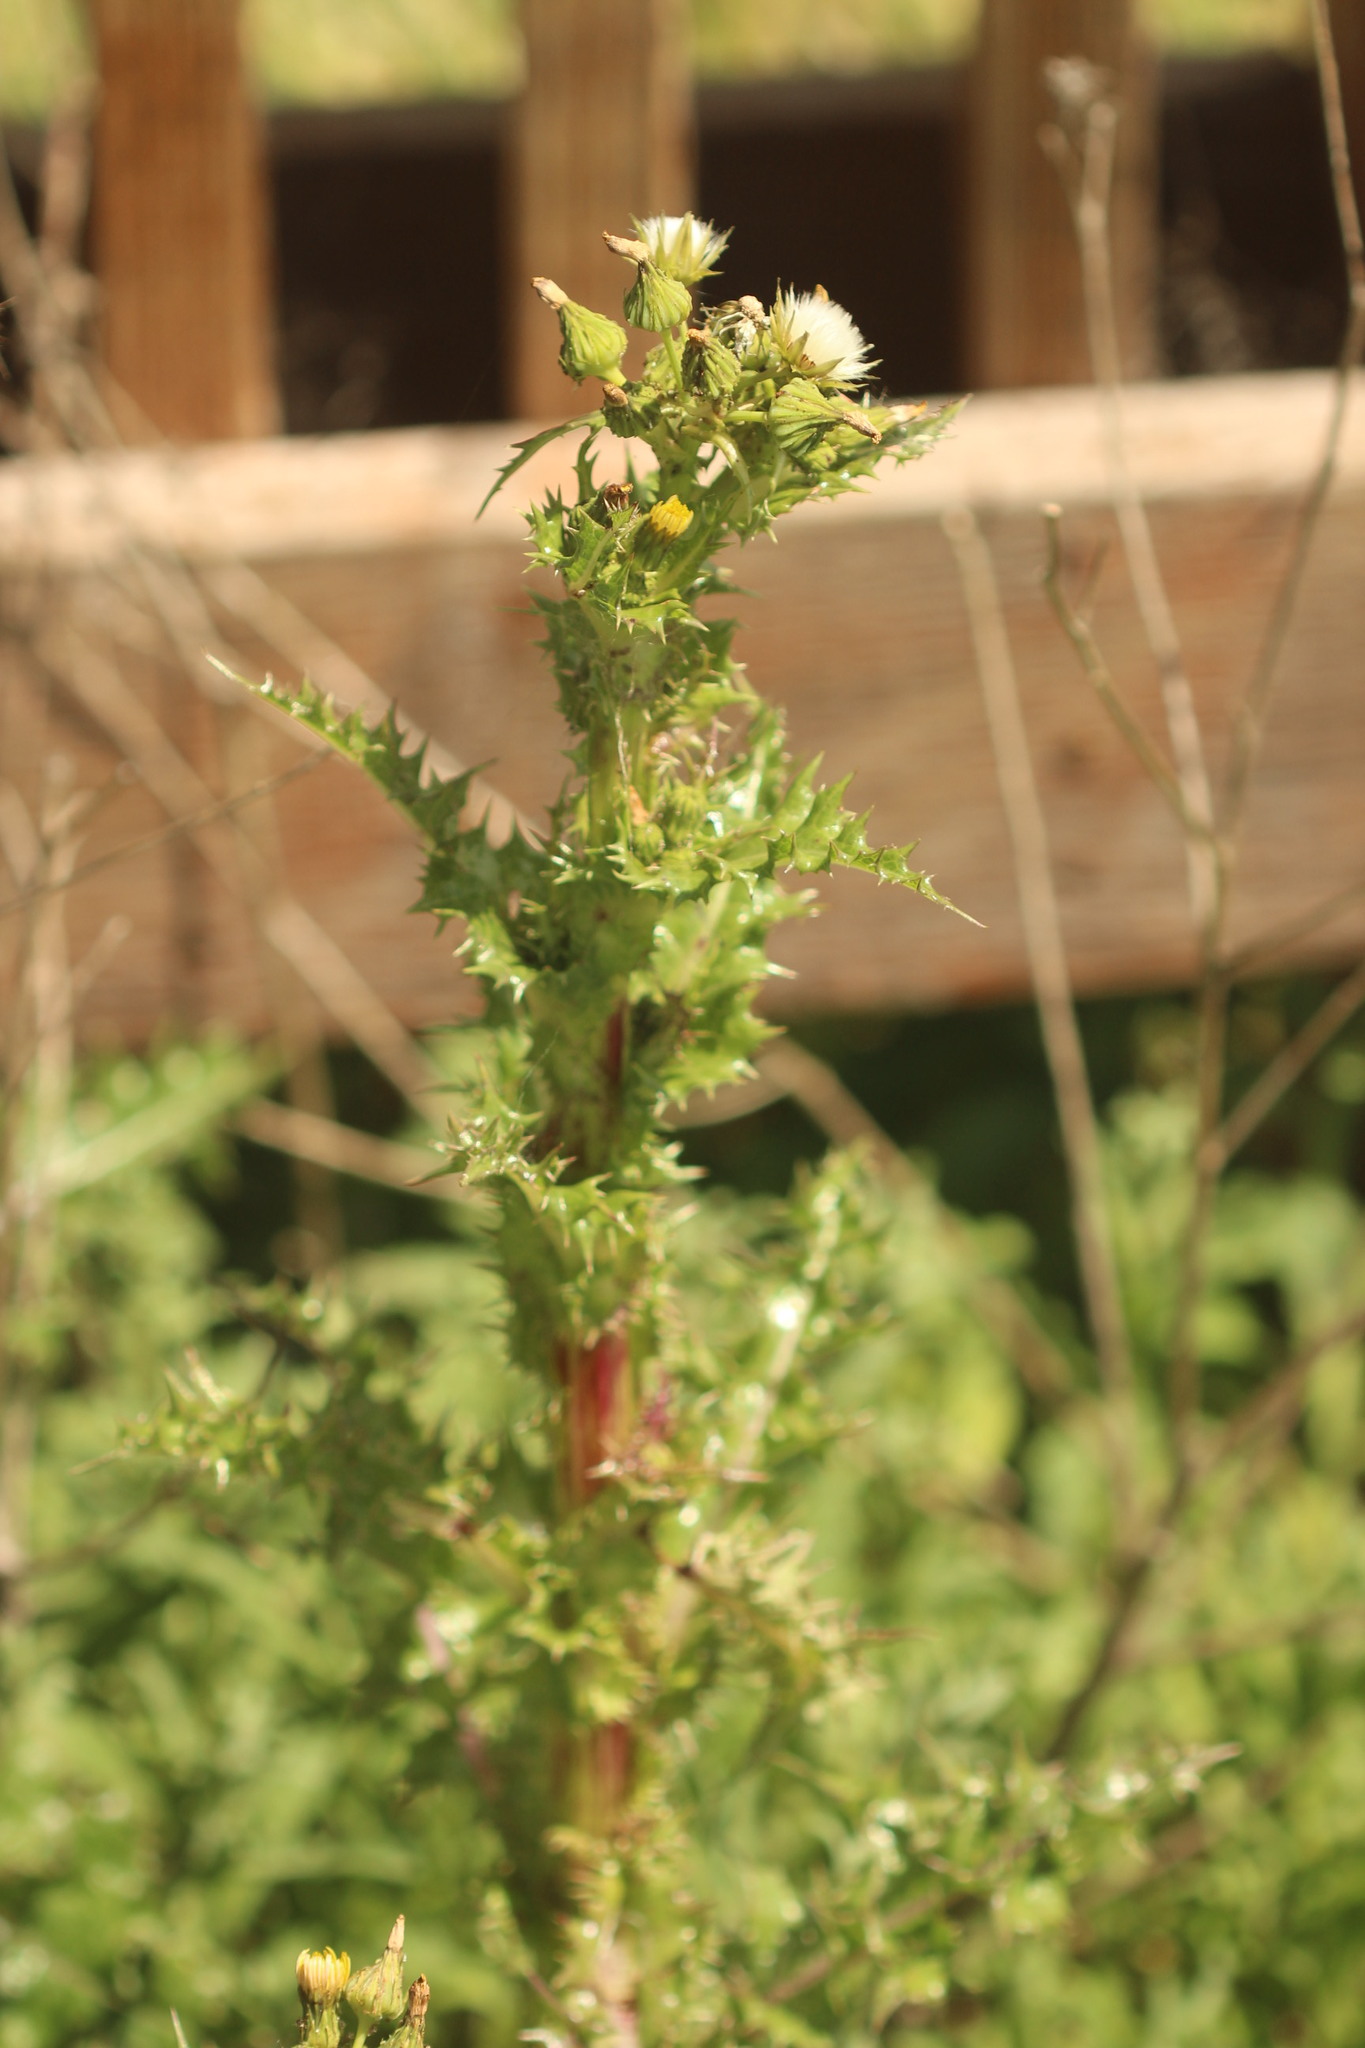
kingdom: Plantae
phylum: Tracheophyta
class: Magnoliopsida
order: Asterales
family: Asteraceae
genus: Sonchus
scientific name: Sonchus asper
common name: Prickly sow-thistle
